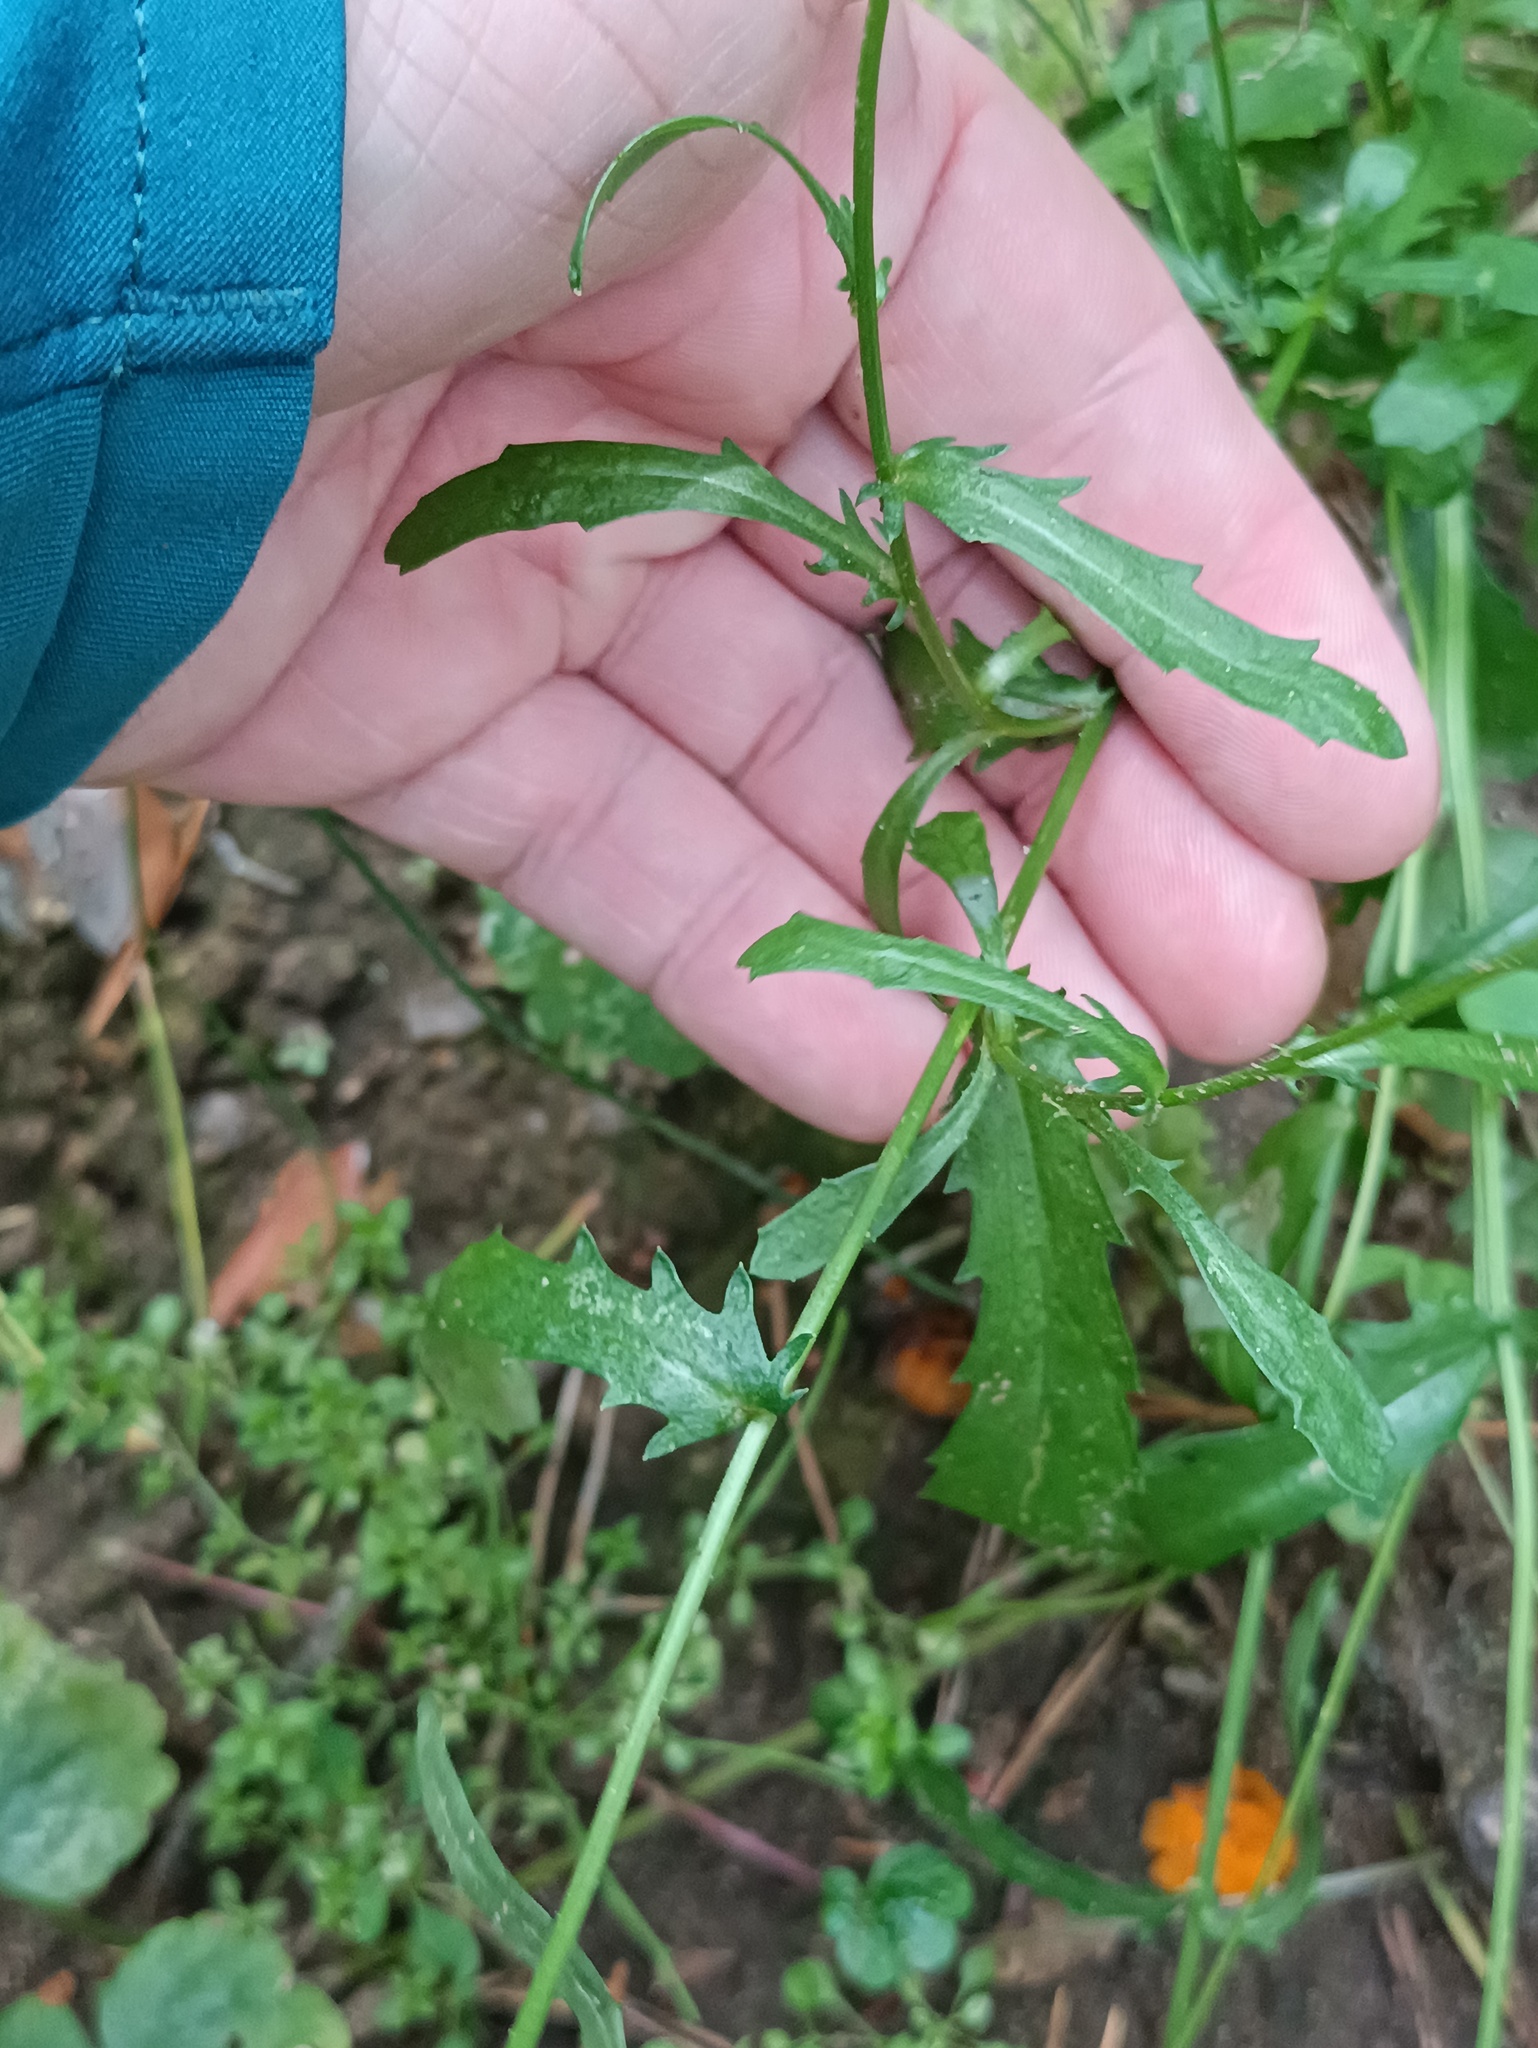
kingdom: Plantae
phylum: Tracheophyta
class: Magnoliopsida
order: Asterales
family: Asteraceae
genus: Leucanthemum
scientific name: Leucanthemum vulgare
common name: Oxeye daisy
